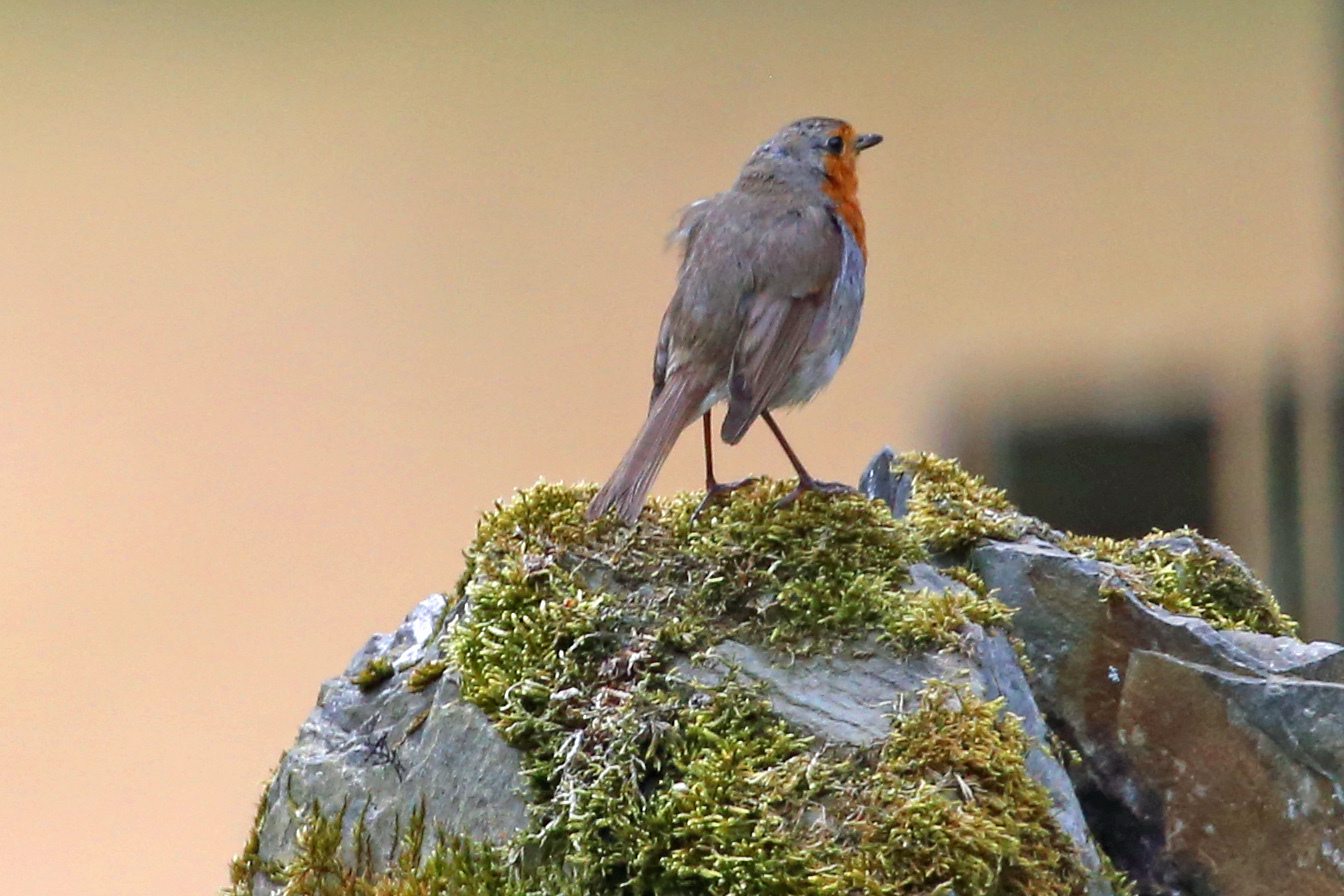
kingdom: Animalia
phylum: Chordata
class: Aves
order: Passeriformes
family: Muscicapidae
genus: Erithacus
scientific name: Erithacus rubecula
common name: European robin
